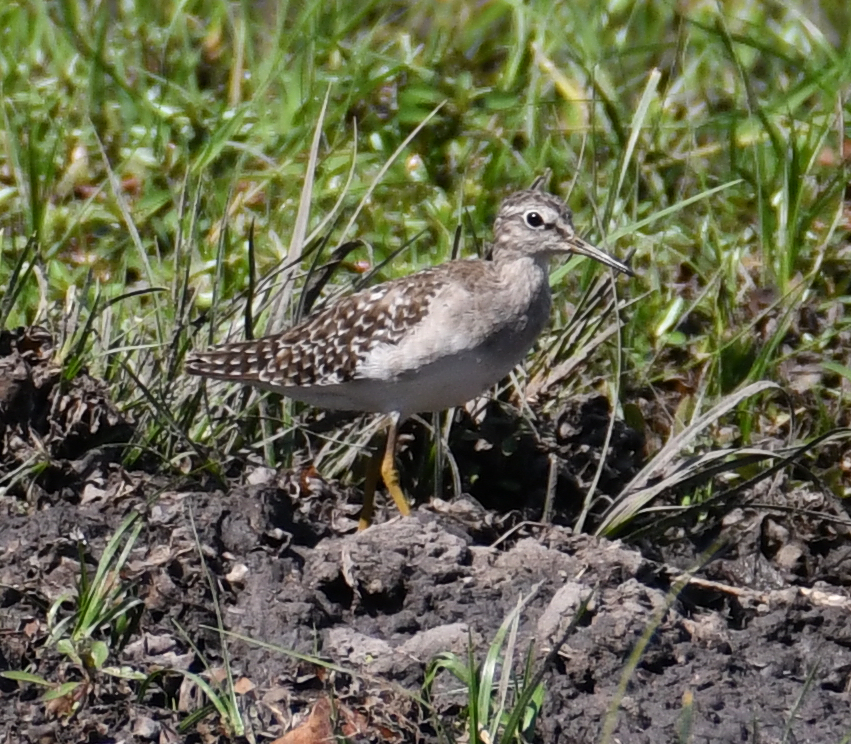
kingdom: Animalia
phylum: Chordata
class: Aves
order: Charadriiformes
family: Scolopacidae
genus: Tringa
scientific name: Tringa glareola
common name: Wood sandpiper
